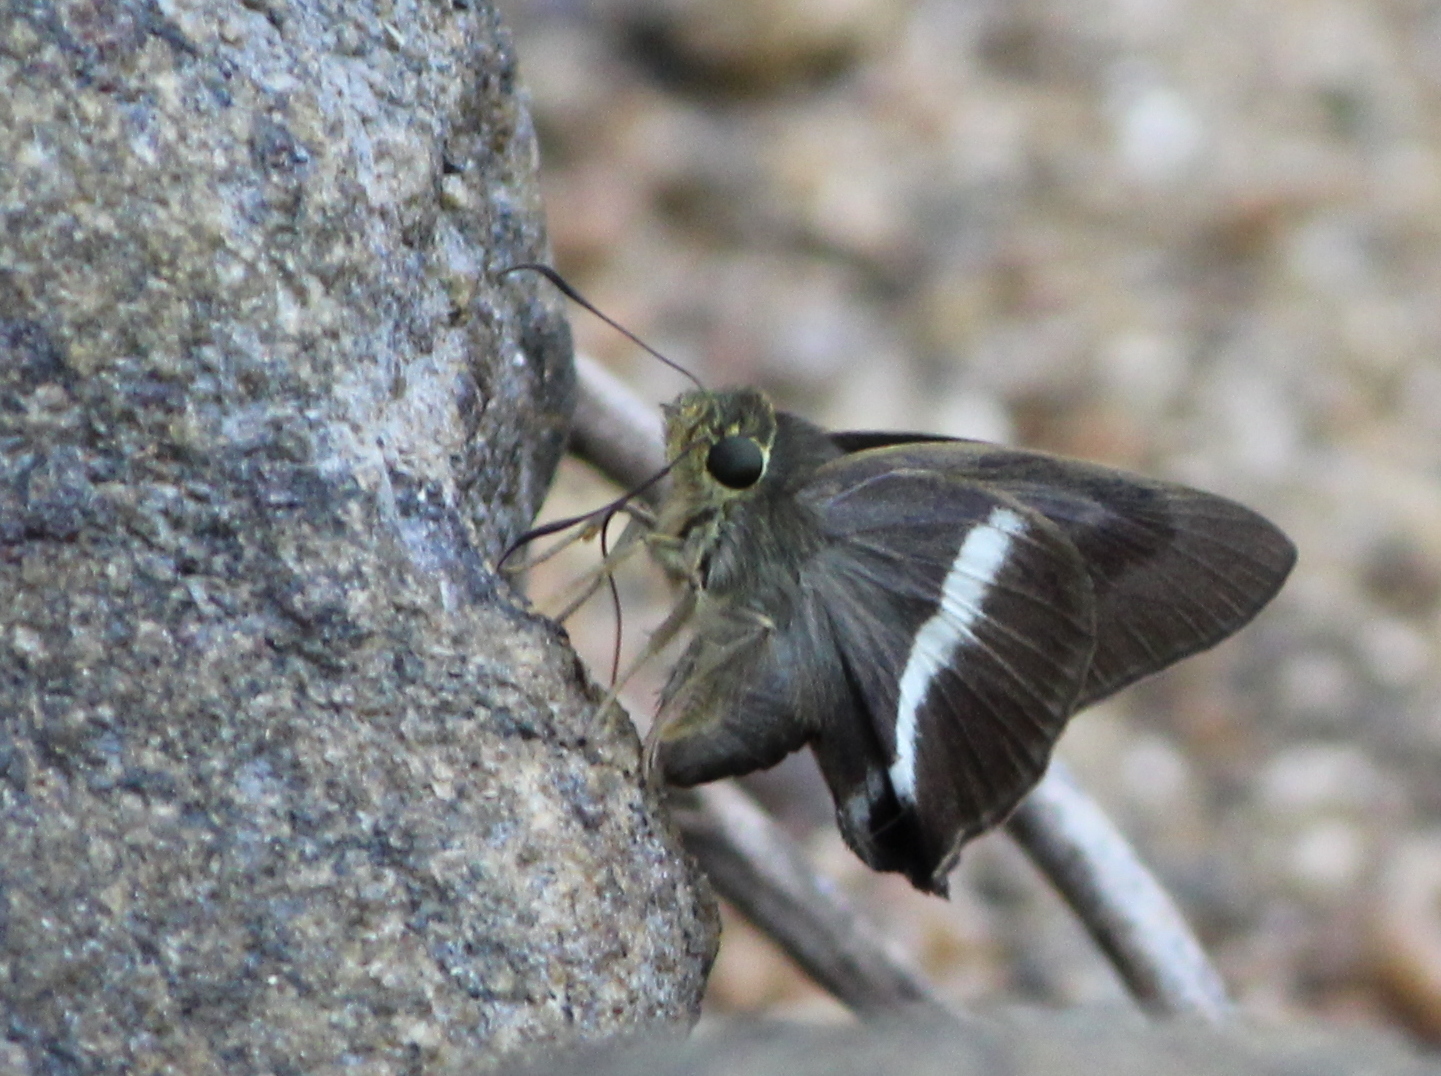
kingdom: Animalia
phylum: Arthropoda
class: Insecta
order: Lepidoptera
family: Hesperiidae
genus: Hasora
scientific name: Hasora taminatus
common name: White banded awl
